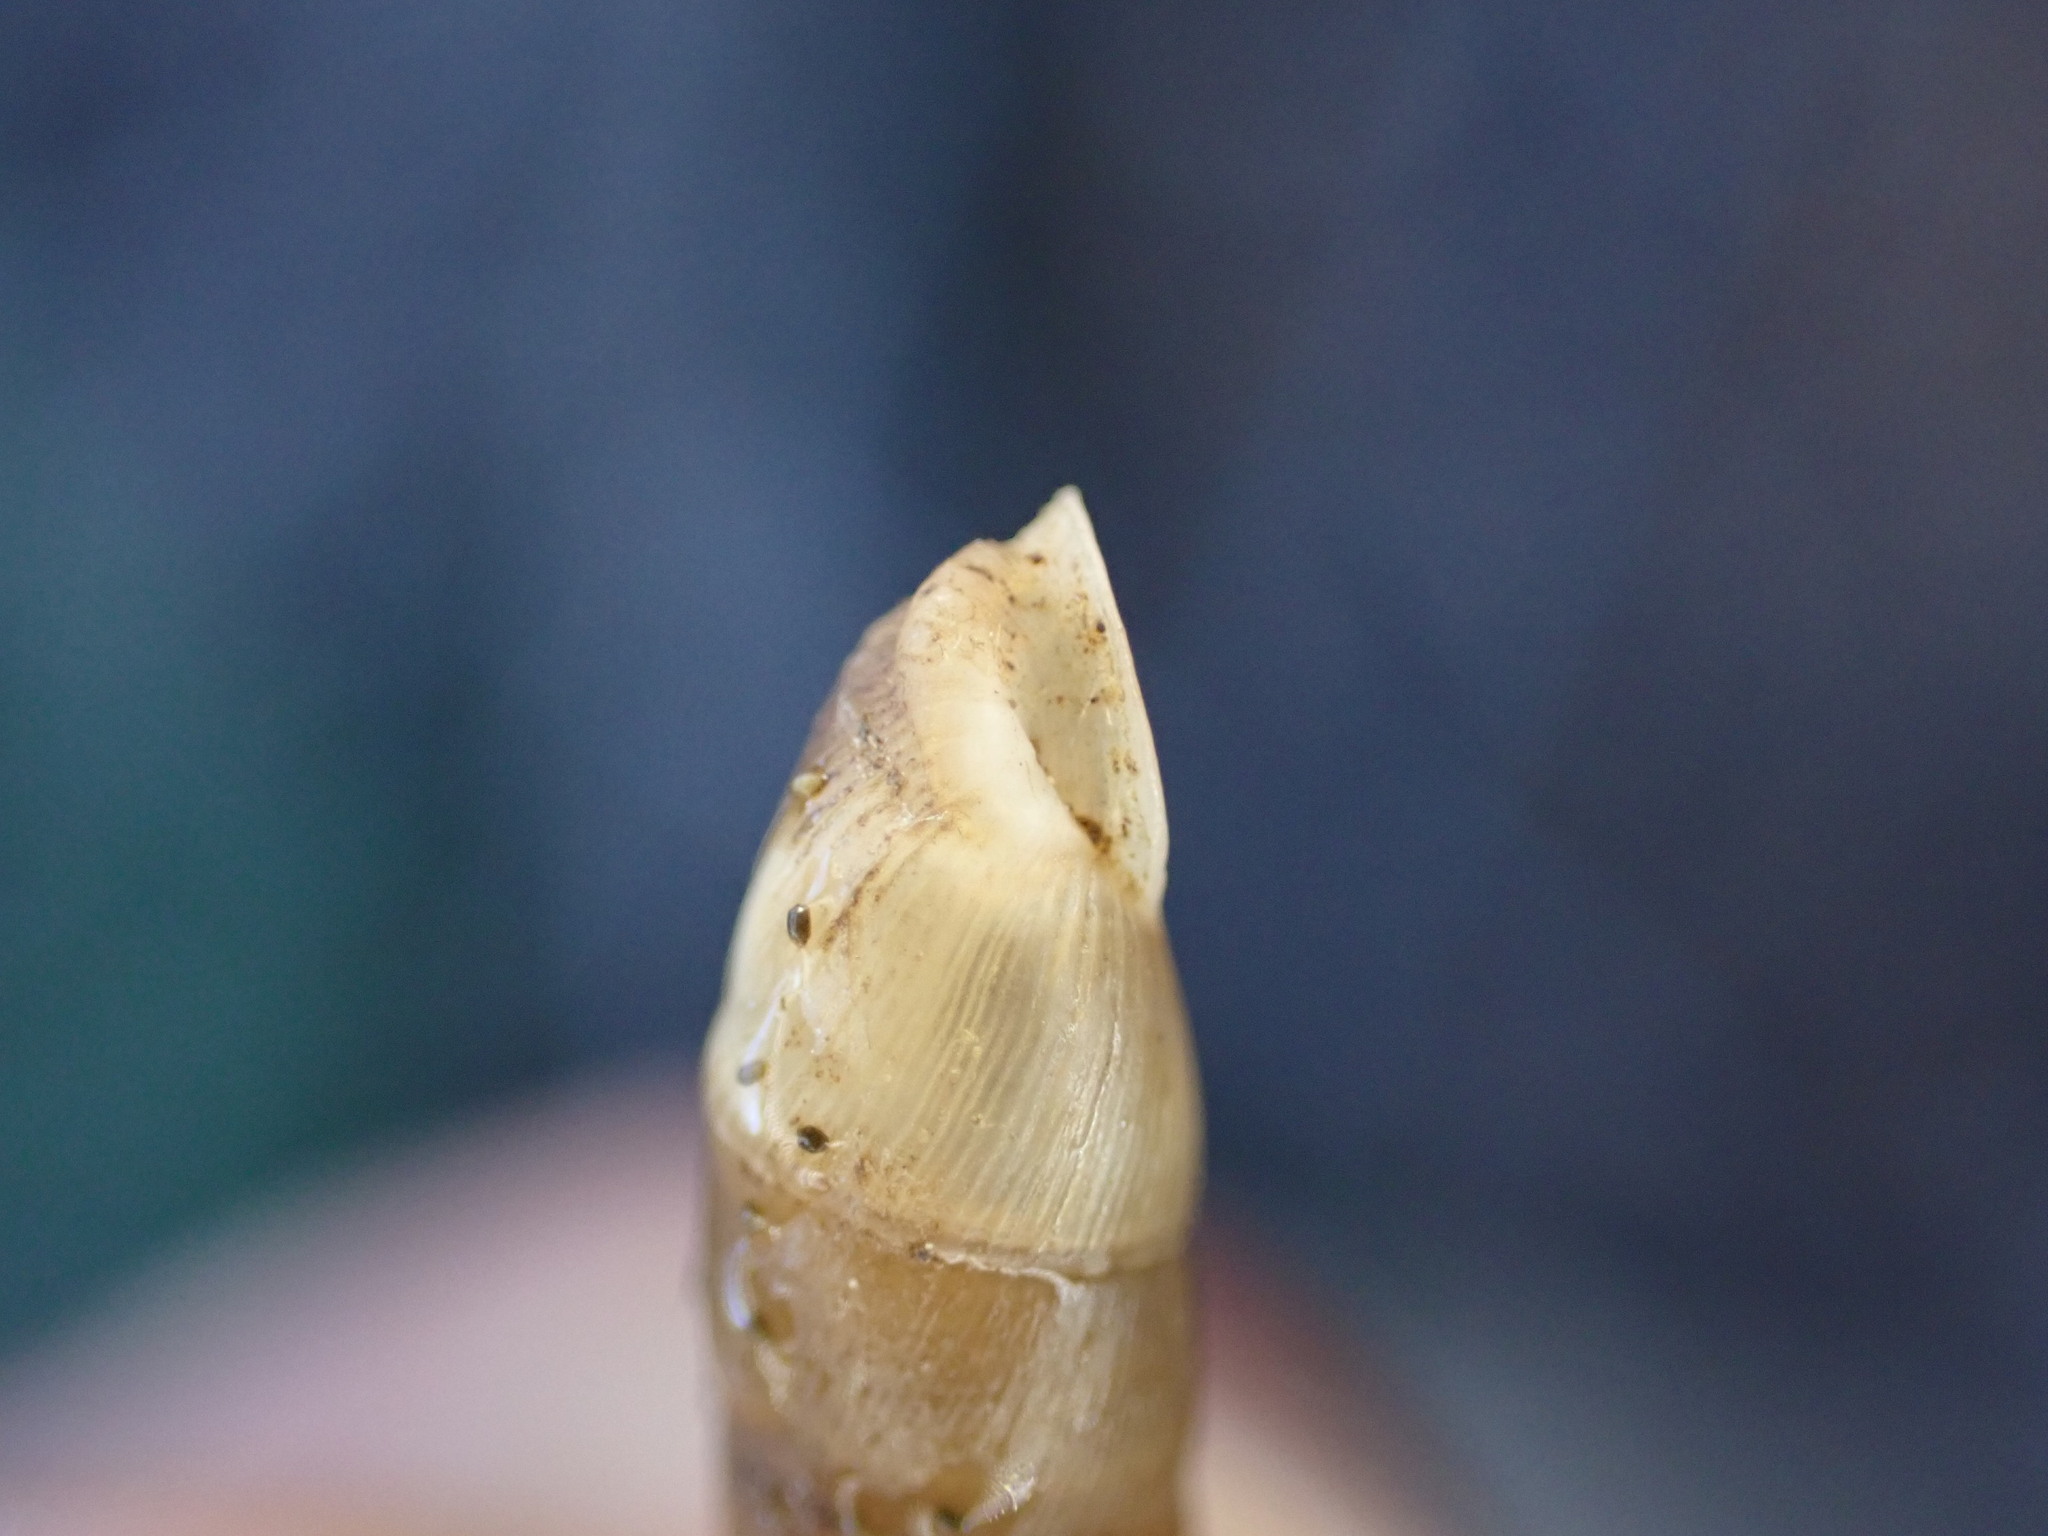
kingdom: Animalia
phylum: Mollusca
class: Gastropoda
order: Stylommatophora
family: Clausiliidae
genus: Papillifera
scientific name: Papillifera solida
